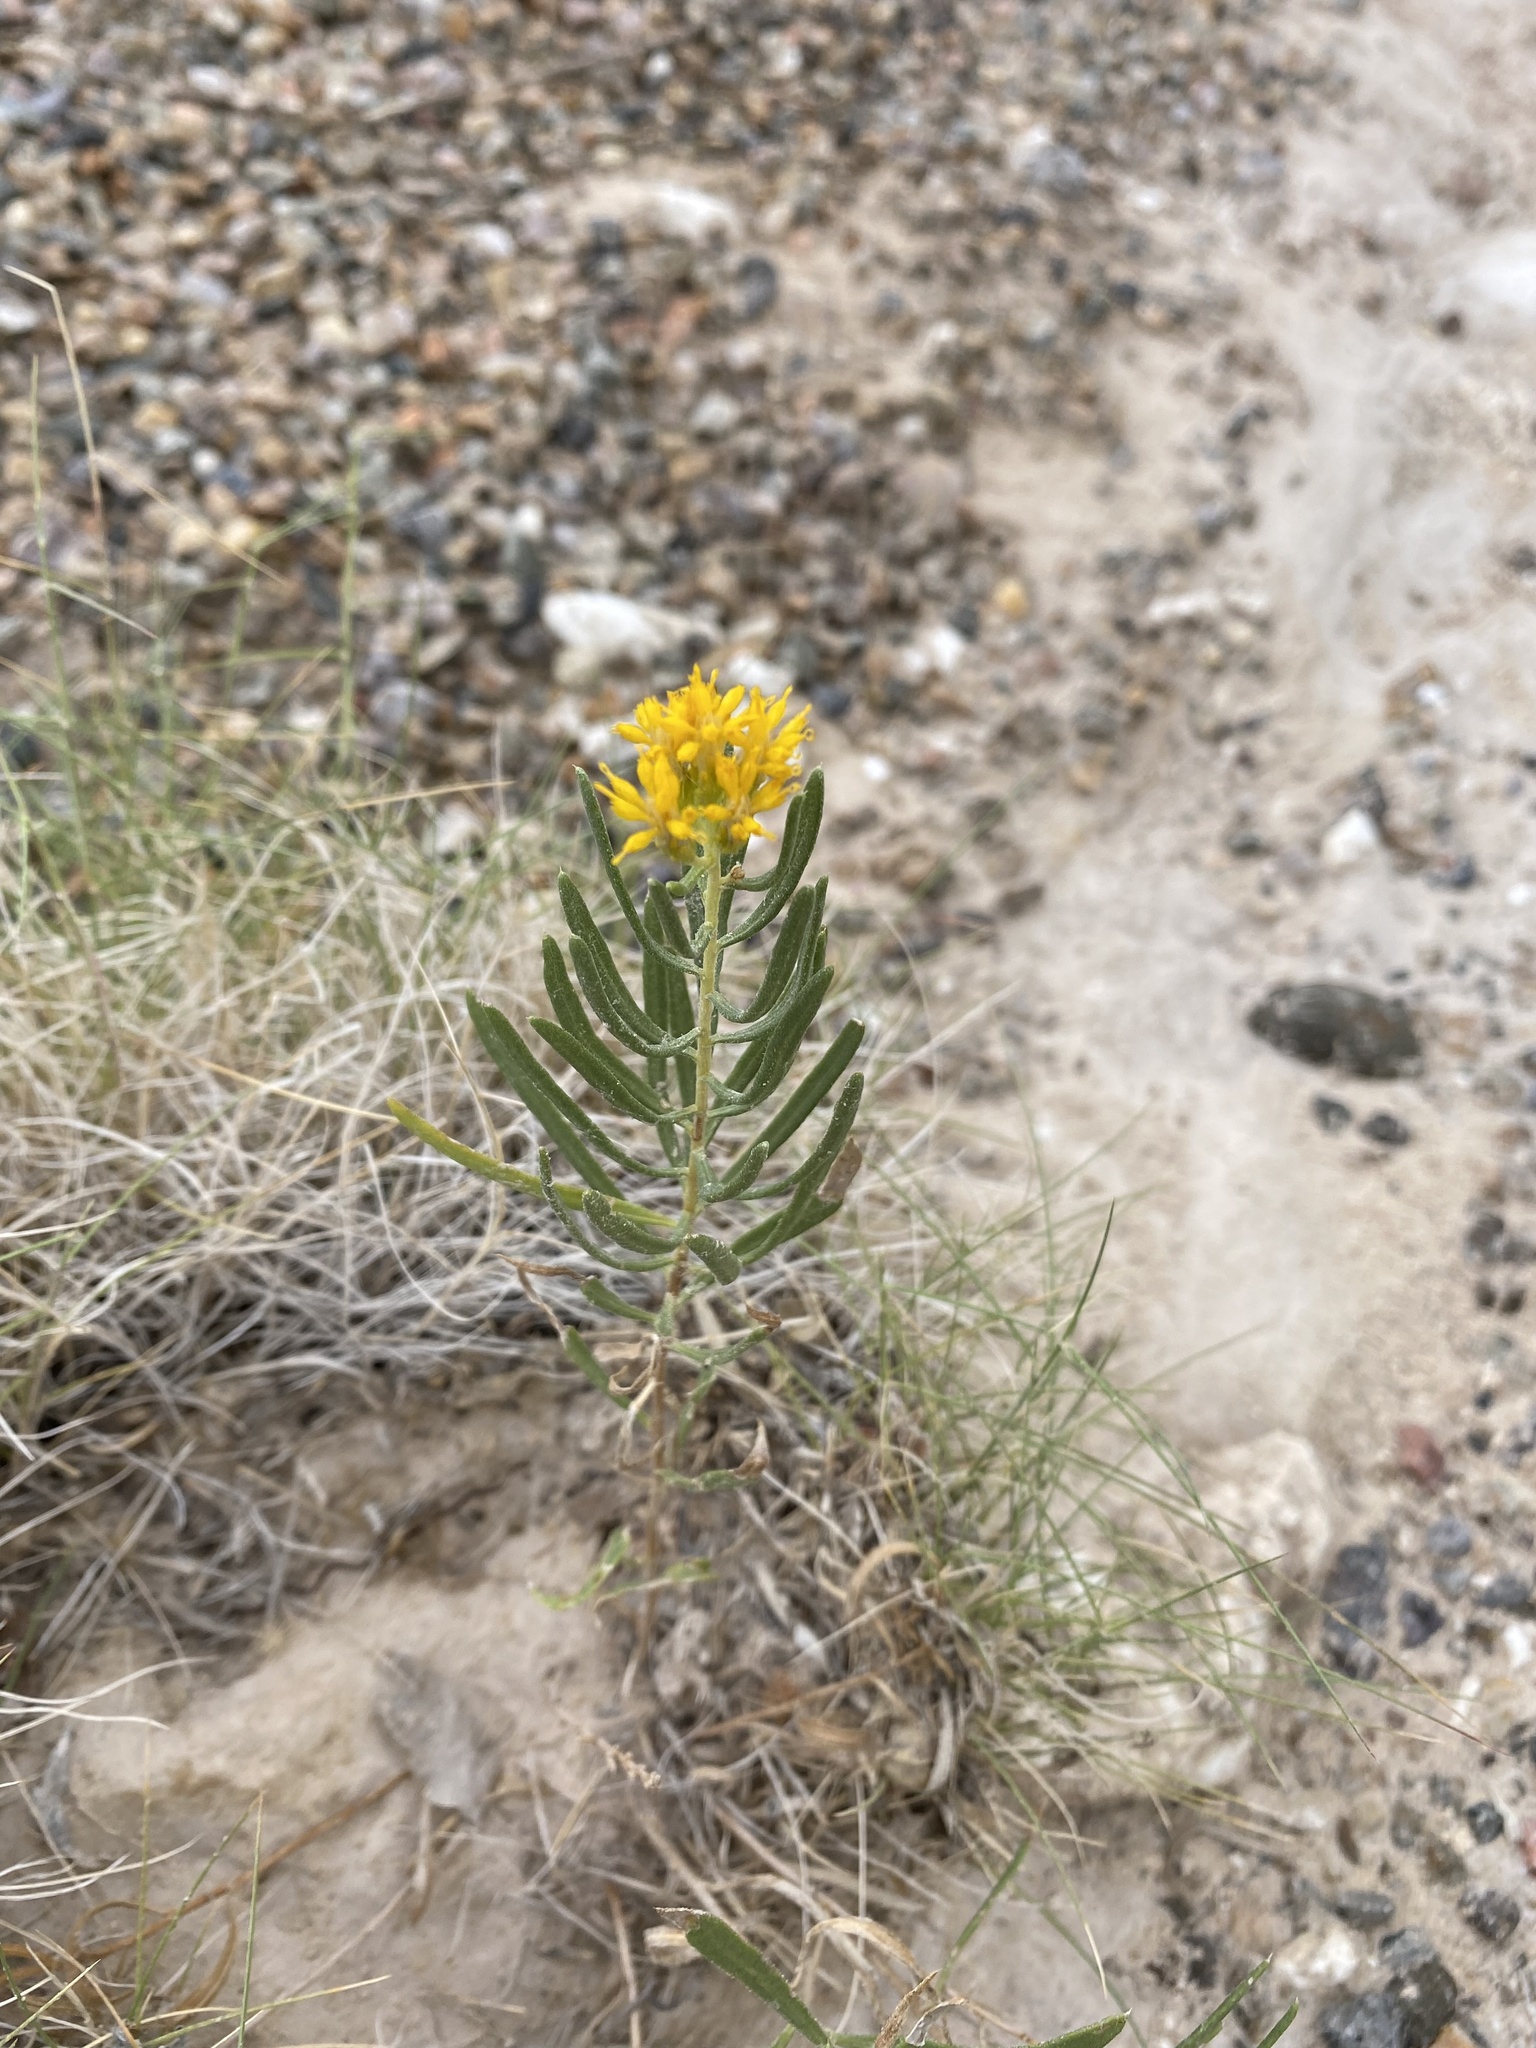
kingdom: Plantae
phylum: Tracheophyta
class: Magnoliopsida
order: Asterales
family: Asteraceae
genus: Isocoma
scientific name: Isocoma pluriflora
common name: Southern jimmyweed
